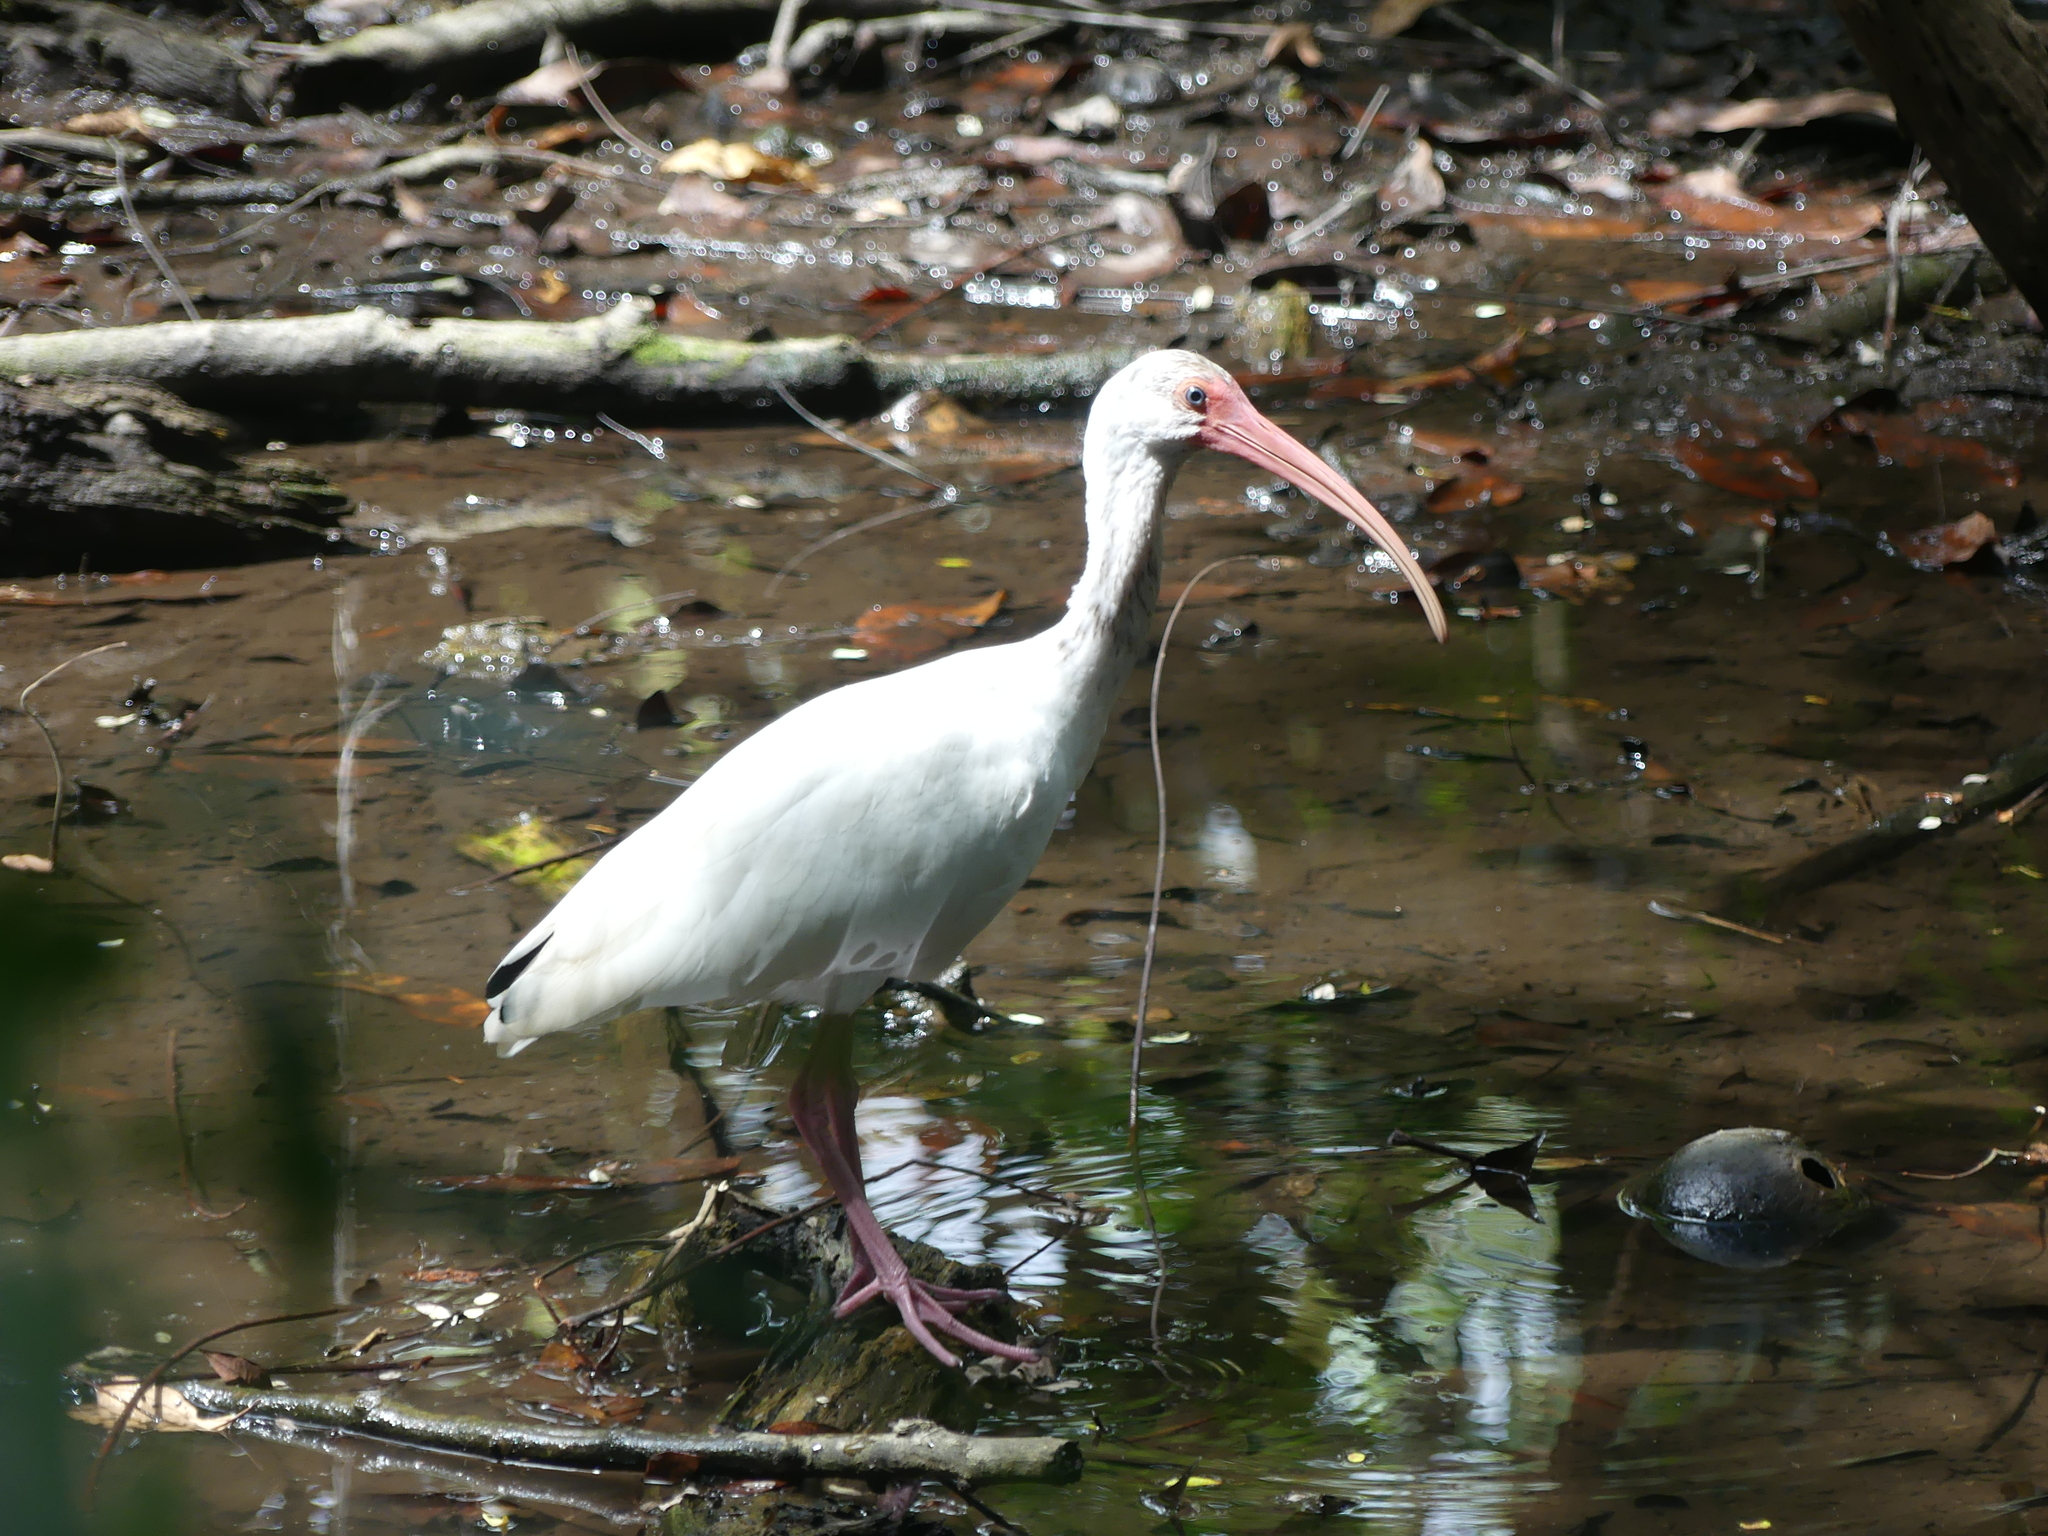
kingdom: Animalia
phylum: Chordata
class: Aves
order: Pelecaniformes
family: Threskiornithidae
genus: Eudocimus
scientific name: Eudocimus albus
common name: White ibis
